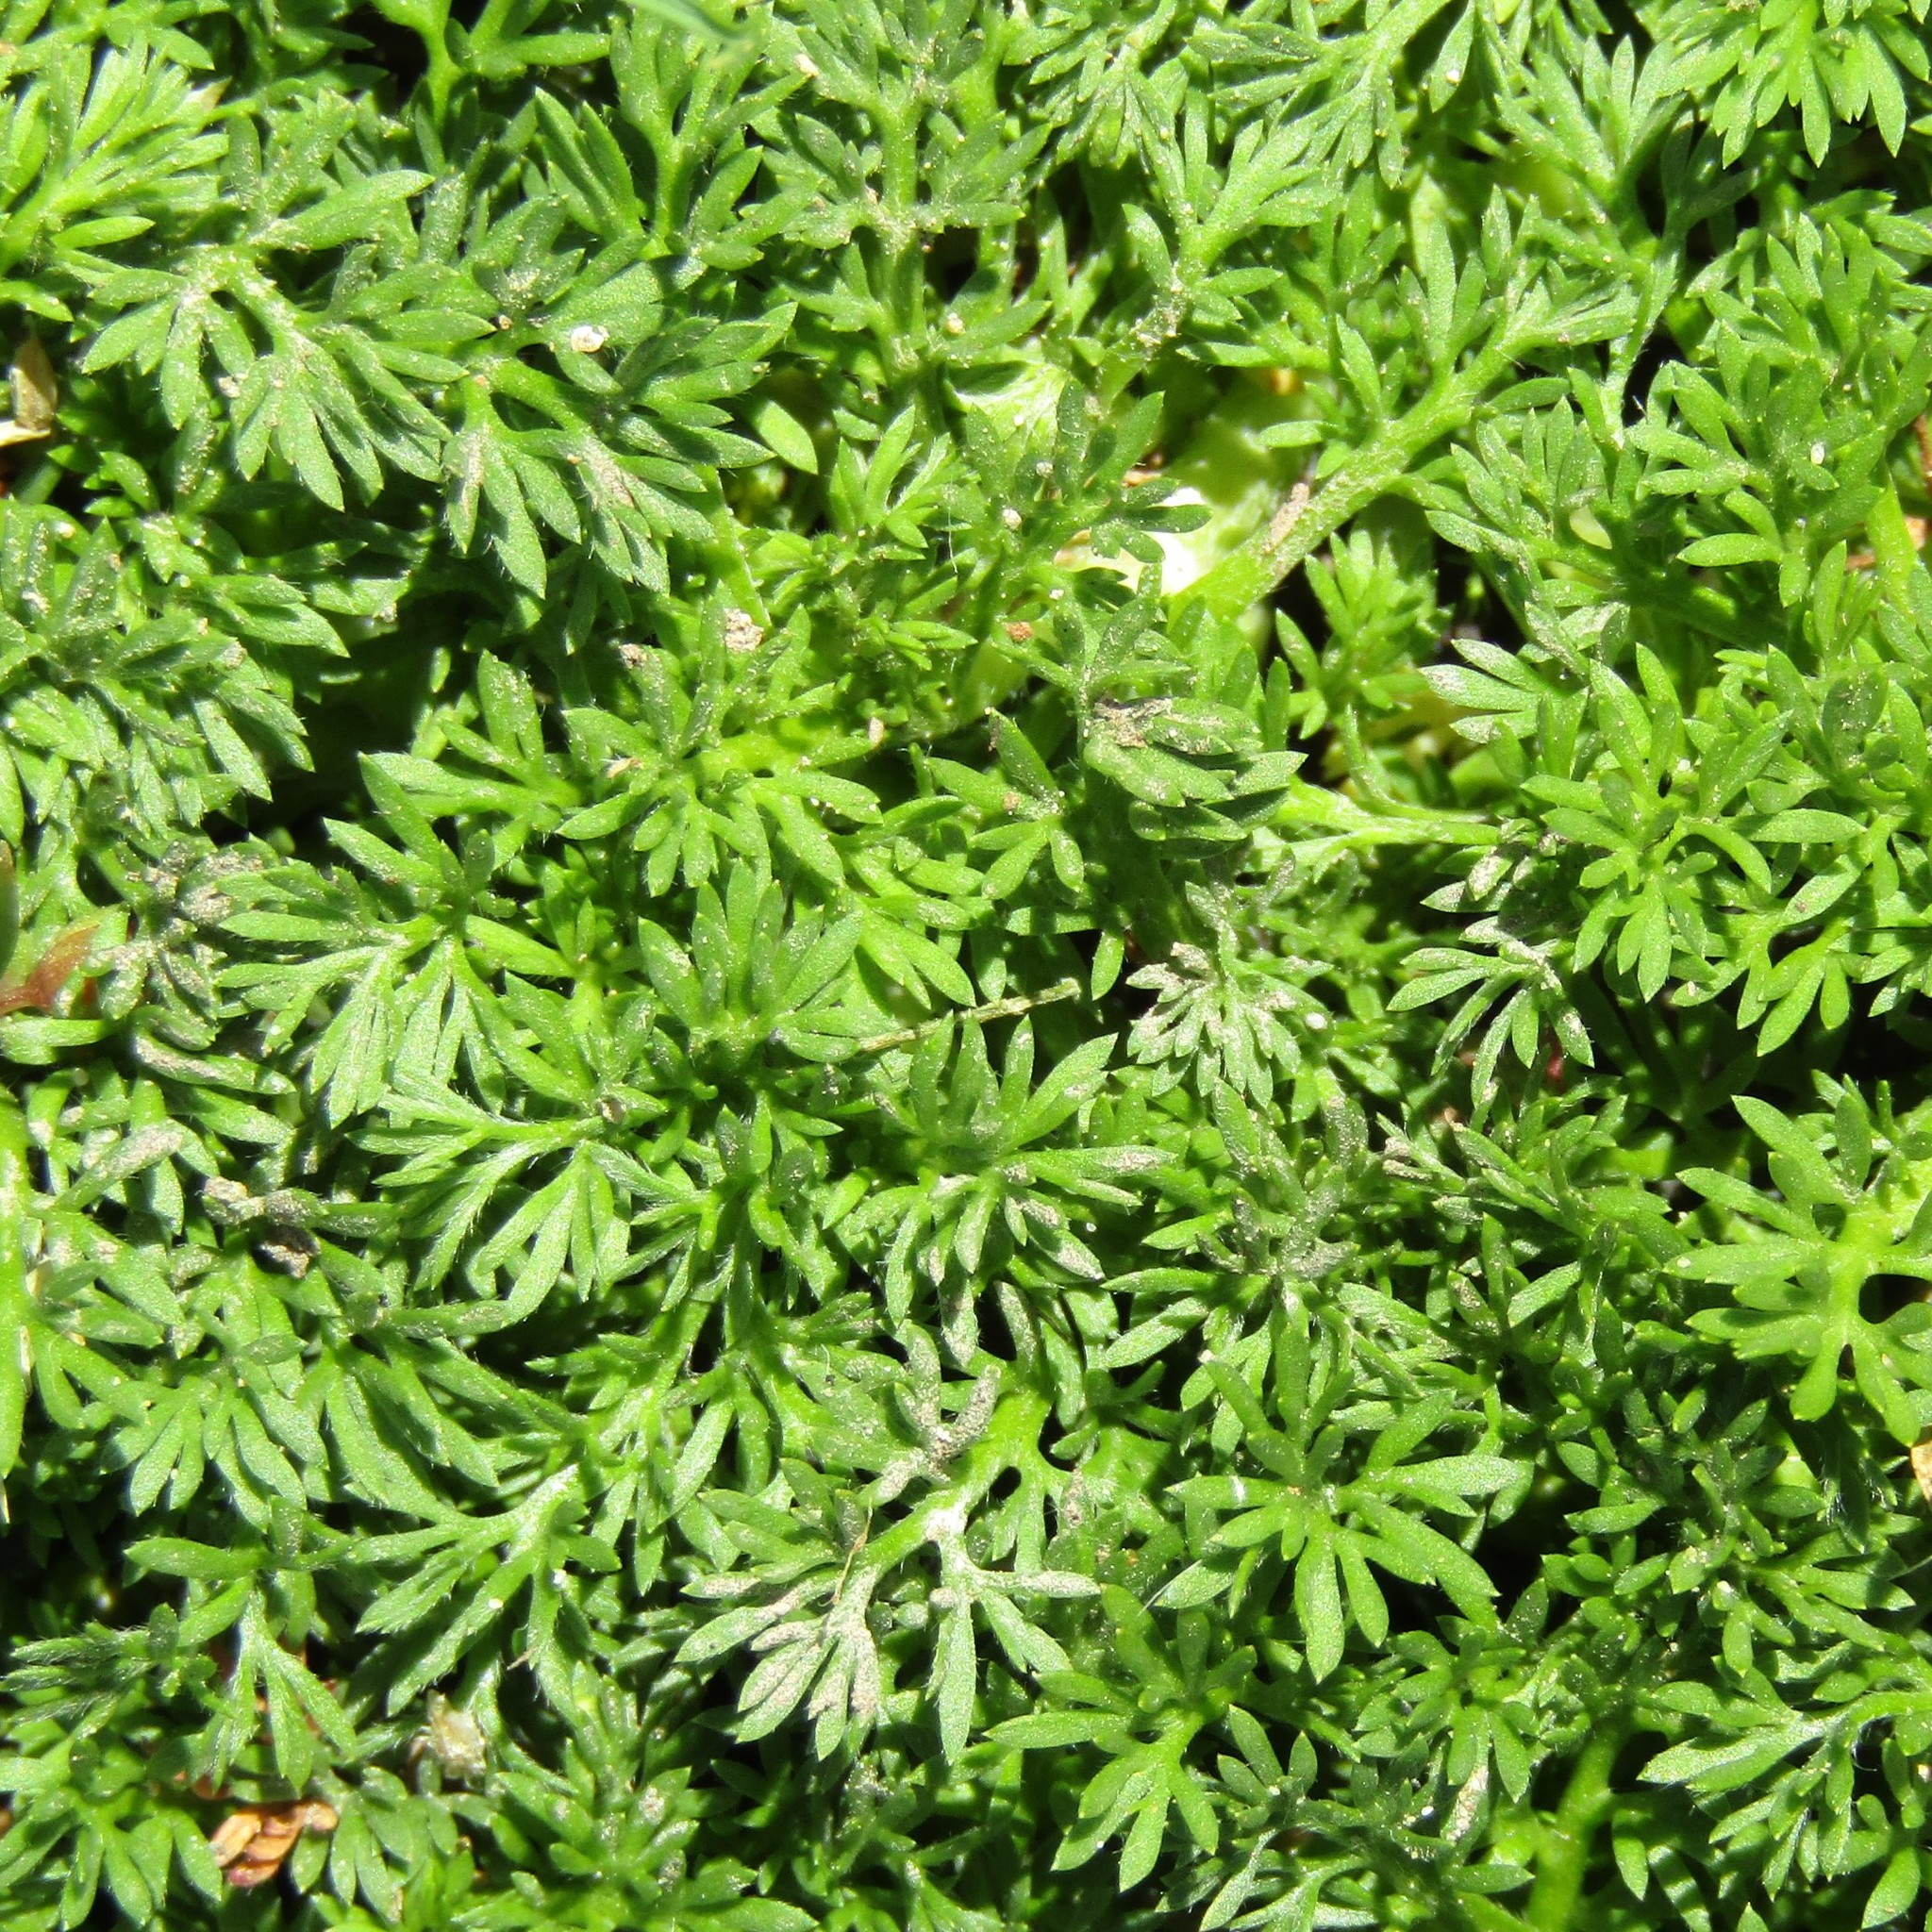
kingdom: Plantae
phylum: Tracheophyta
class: Magnoliopsida
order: Asterales
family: Asteraceae
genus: Soliva
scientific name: Soliva sessilis
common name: Field burrweed
